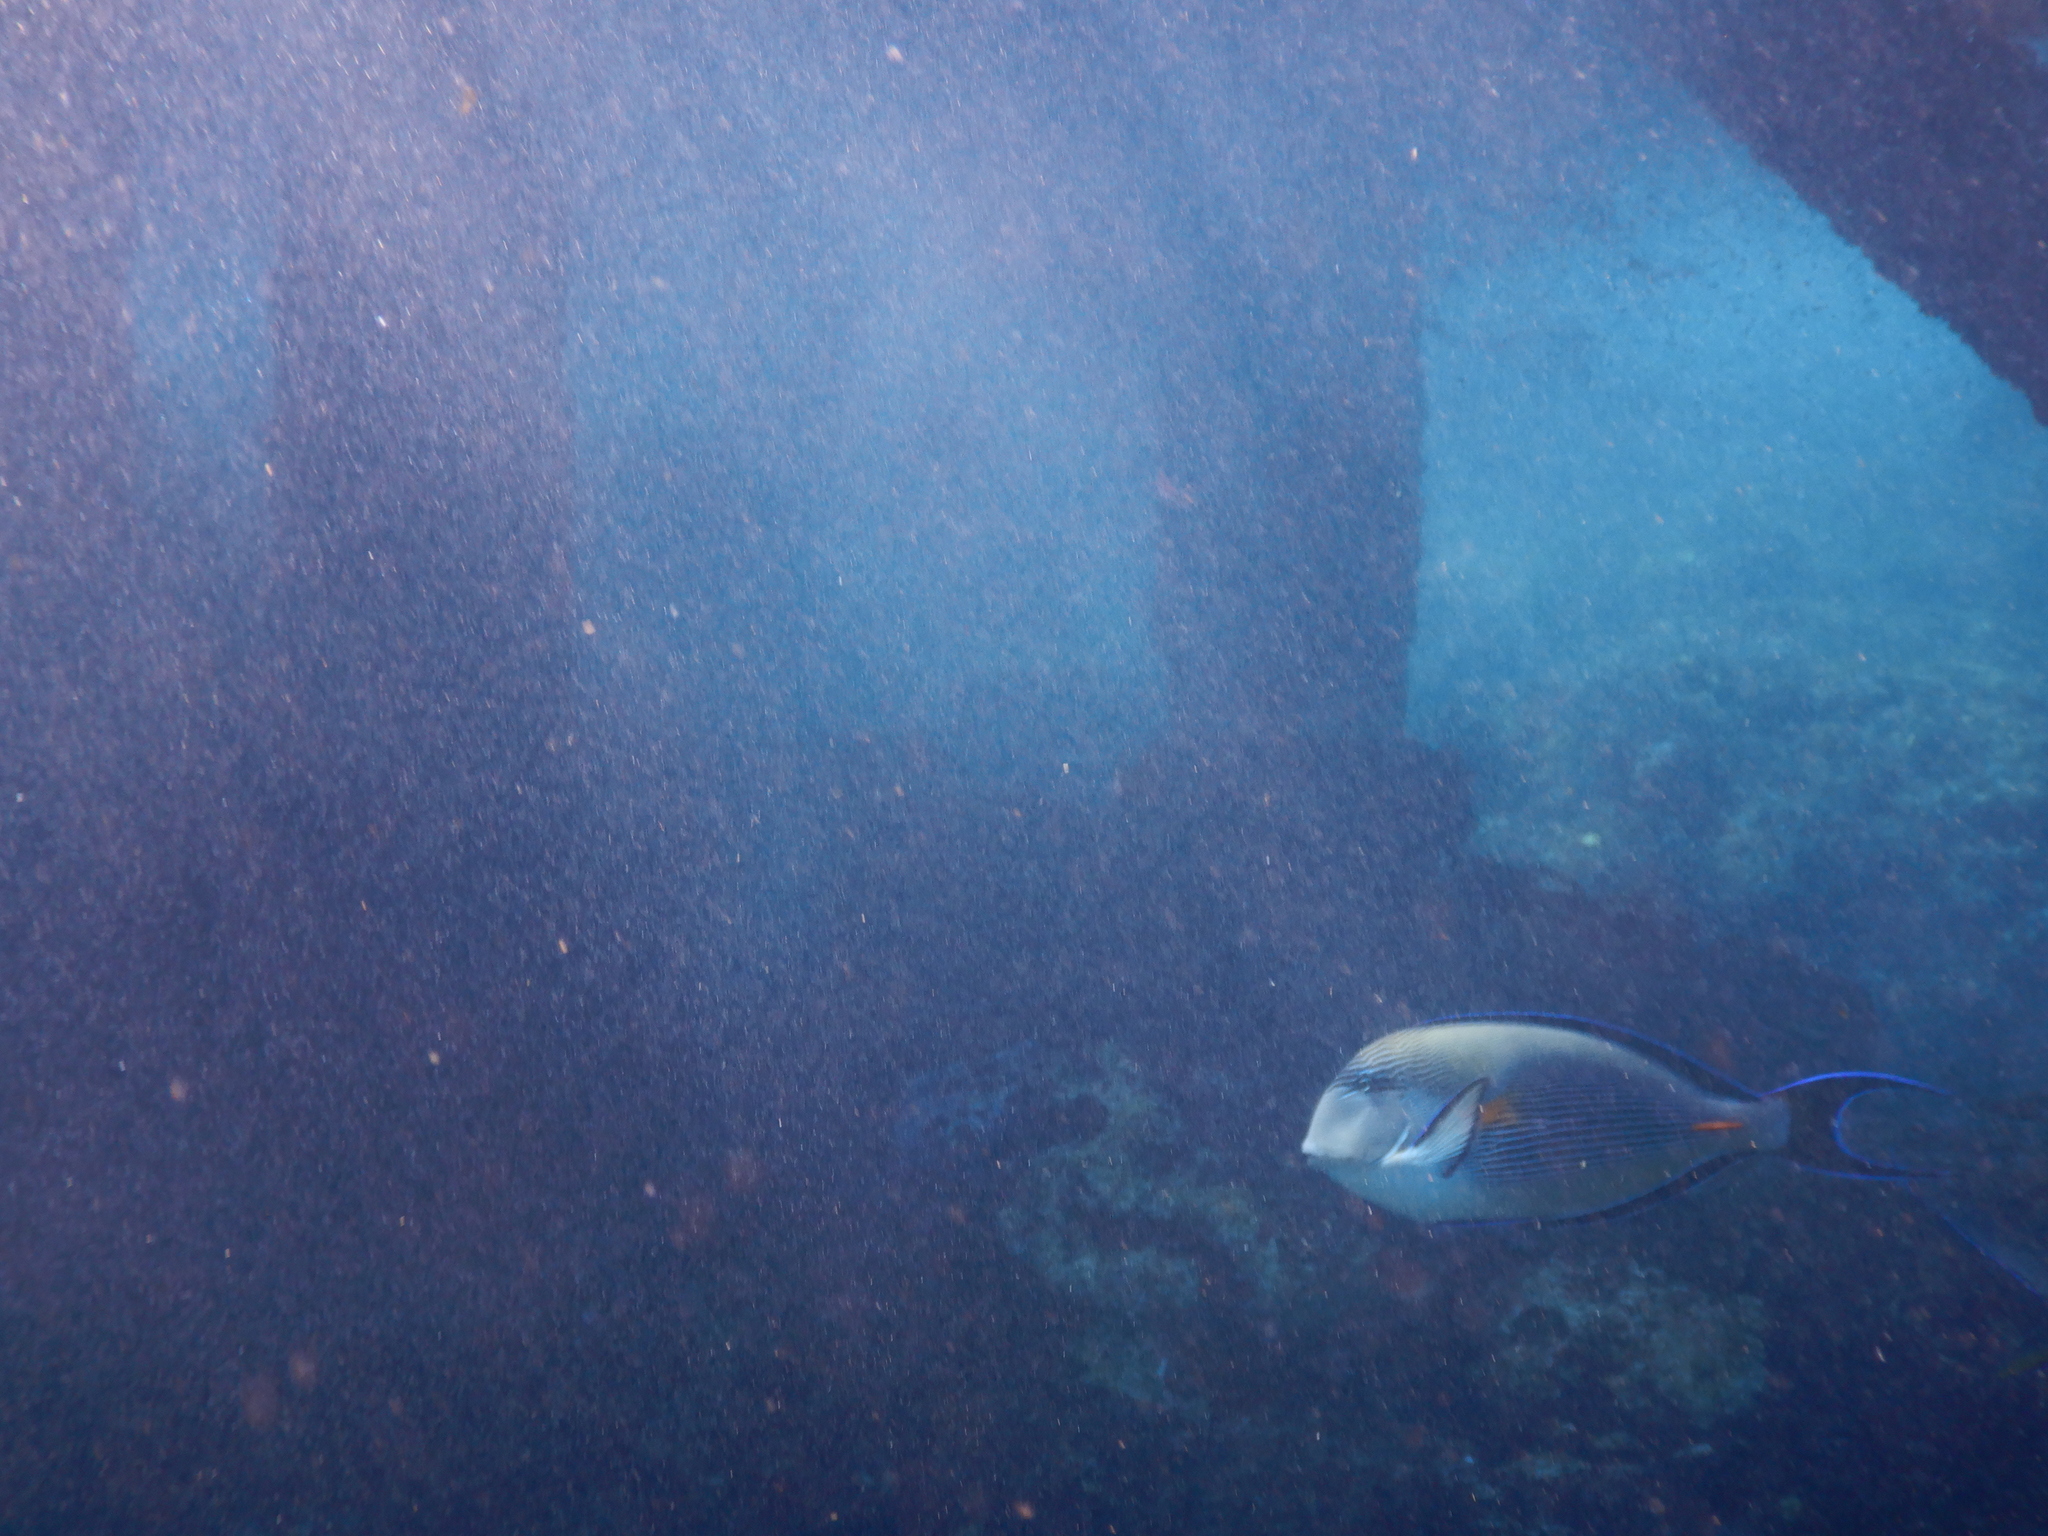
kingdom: Animalia
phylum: Chordata
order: Perciformes
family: Acanthuridae
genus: Acanthurus
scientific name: Acanthurus sohal
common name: Red sea surgeonfish
